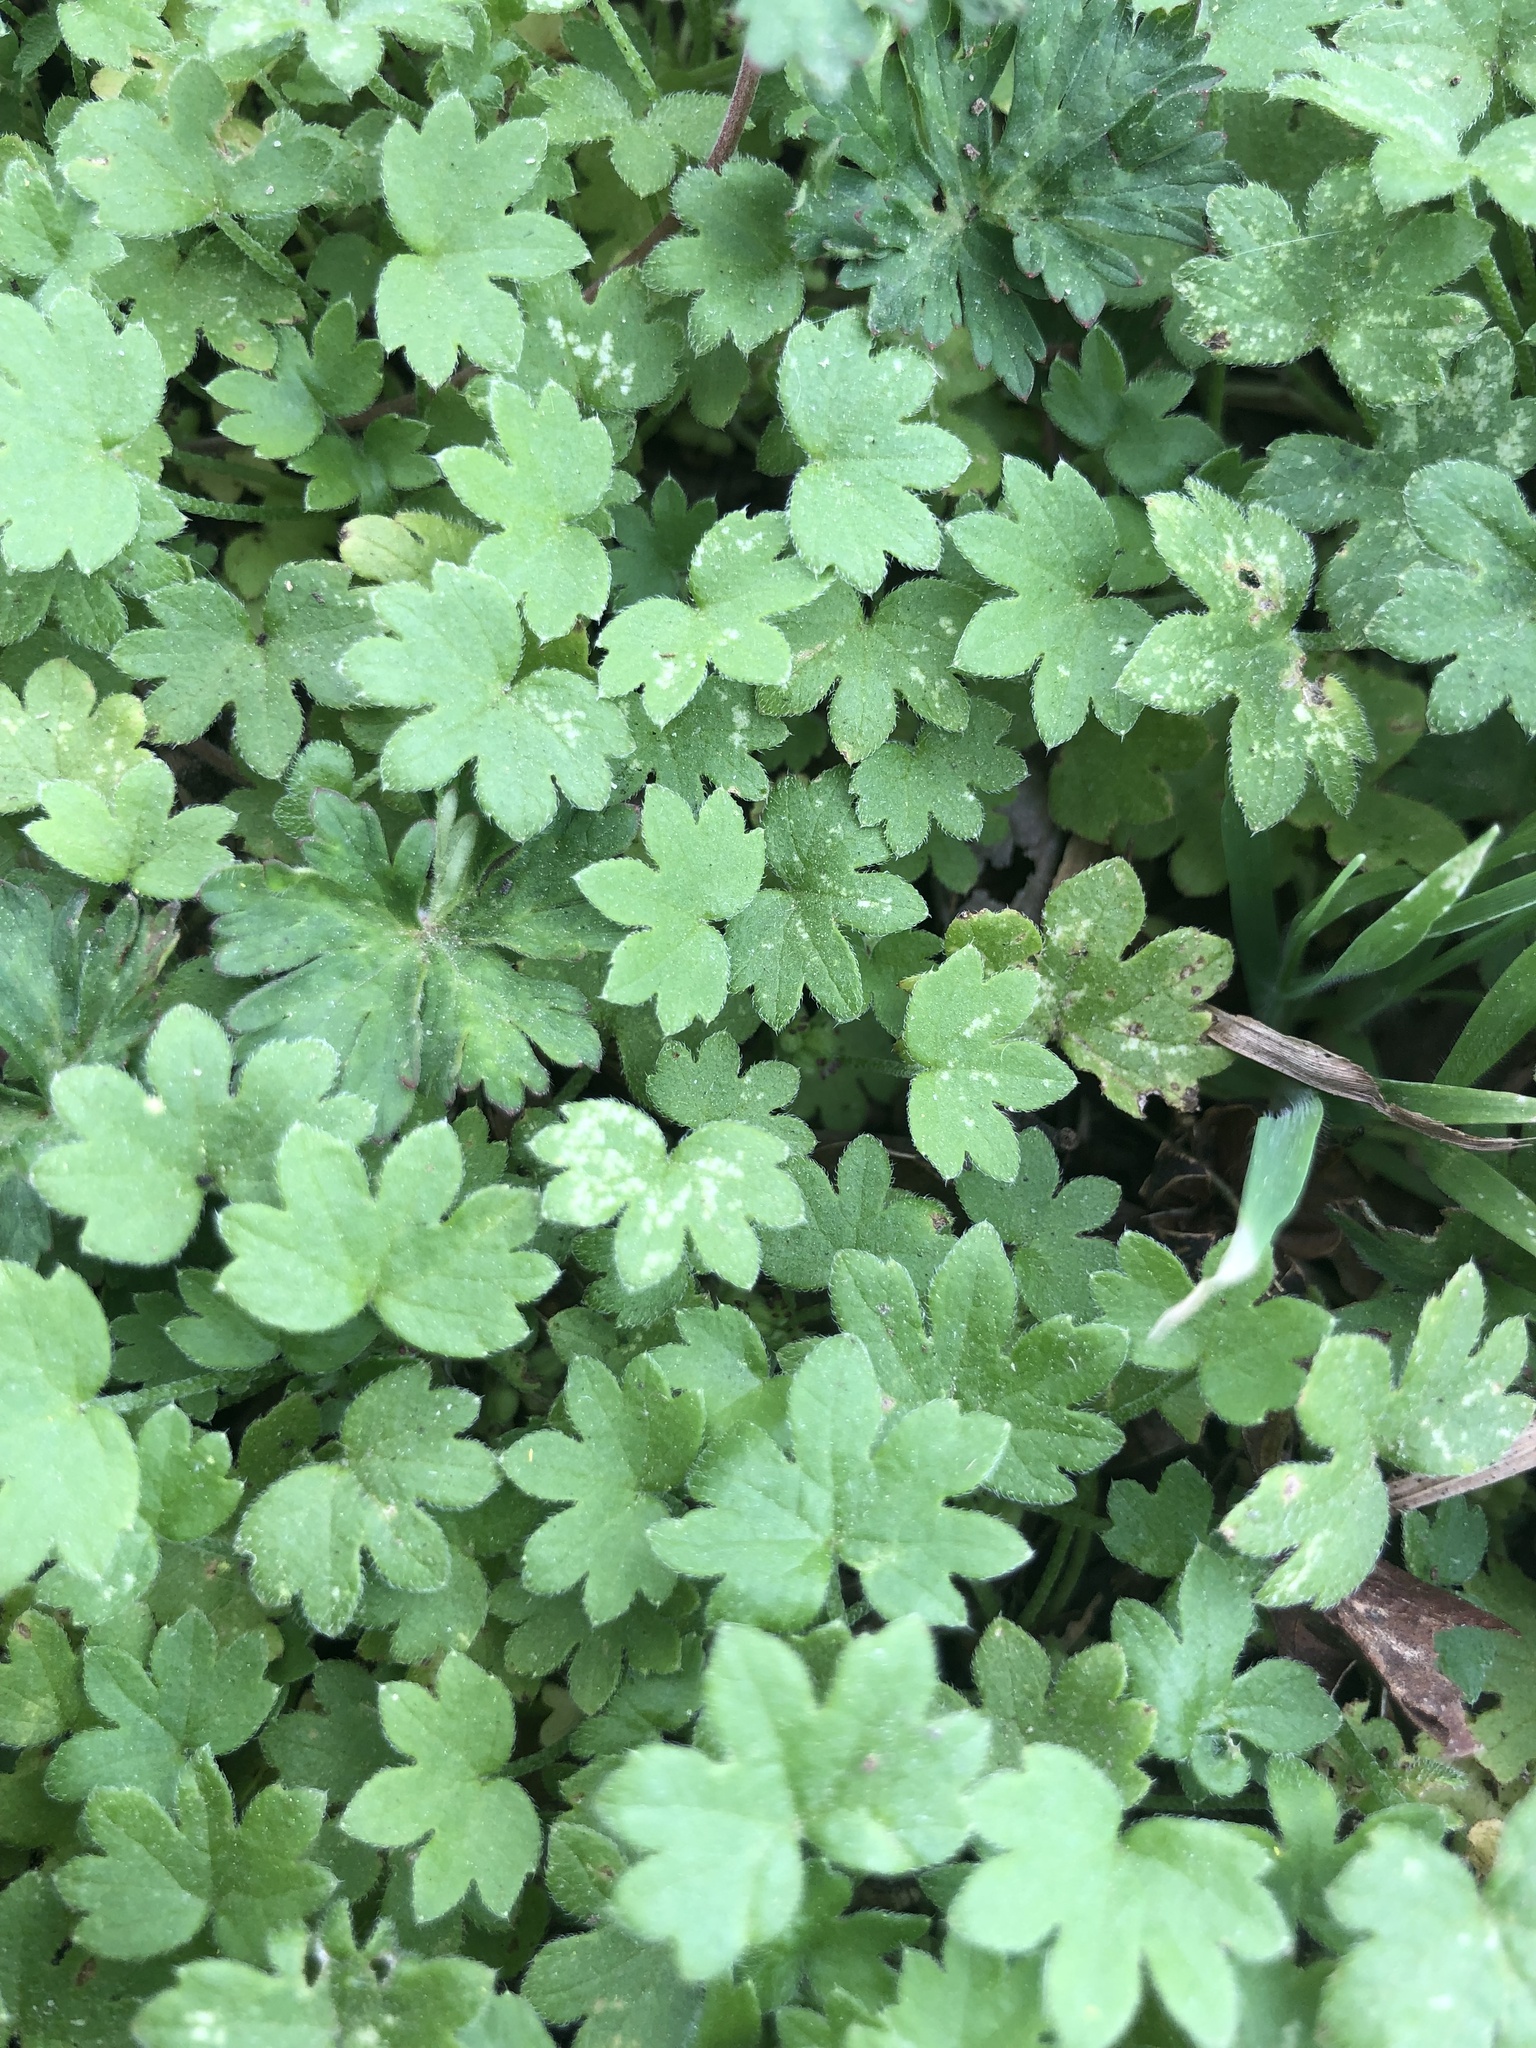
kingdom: Plantae
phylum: Tracheophyta
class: Magnoliopsida
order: Apiales
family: Apiaceae
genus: Bowlesia
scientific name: Bowlesia incana
